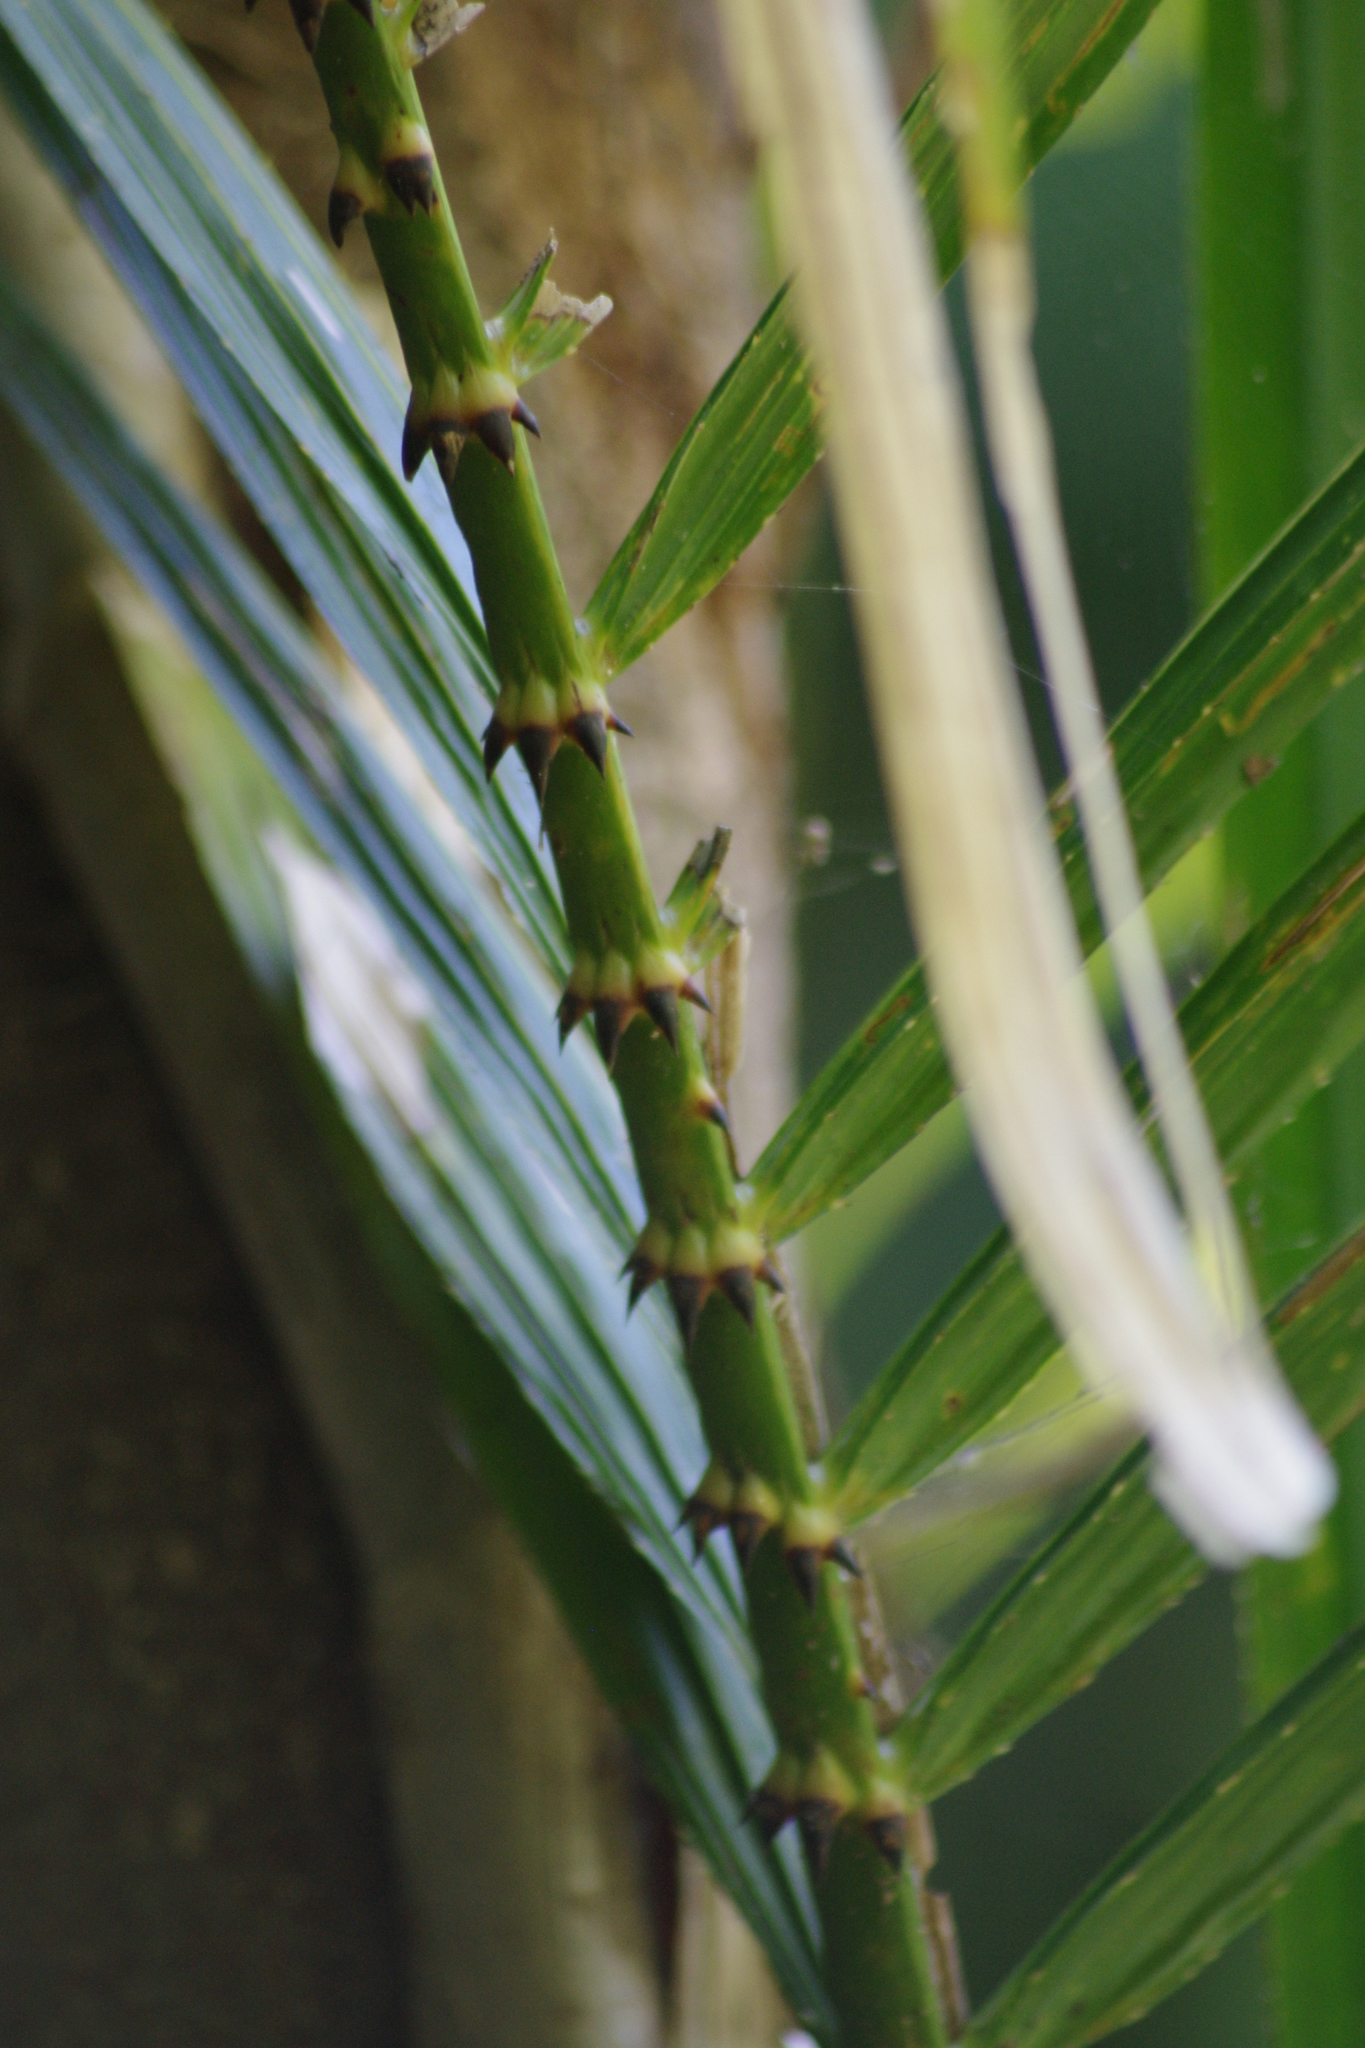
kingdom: Plantae
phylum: Tracheophyta
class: Liliopsida
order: Arecales
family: Arecaceae
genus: Calamus
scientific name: Calamus moti
